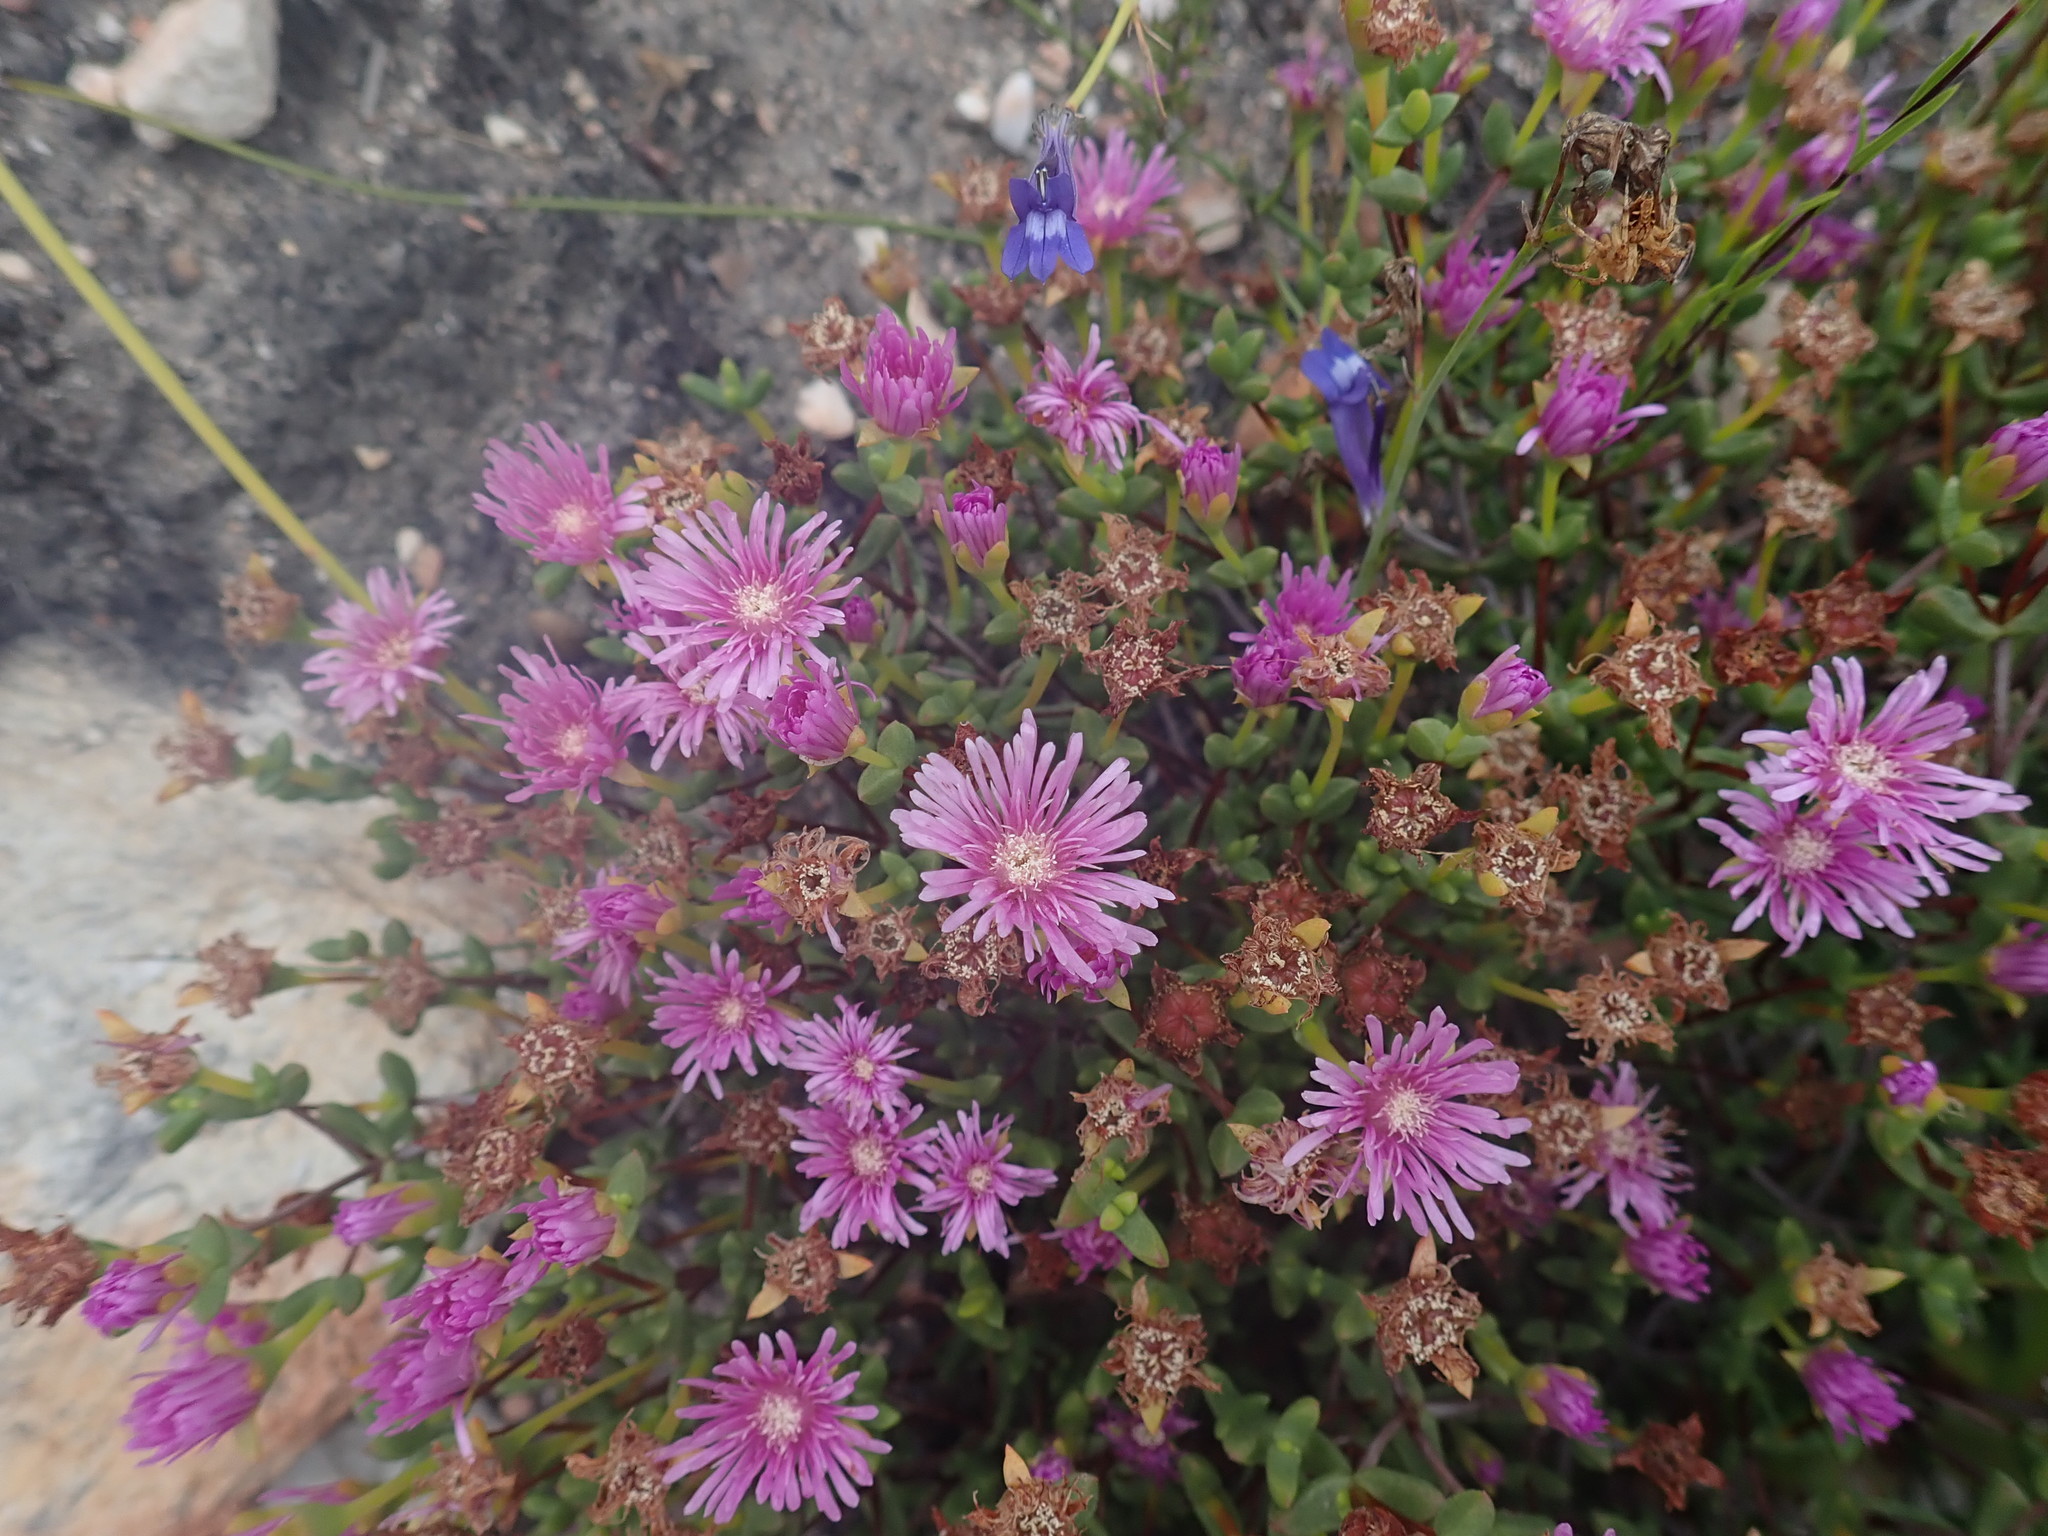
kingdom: Plantae
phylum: Tracheophyta
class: Magnoliopsida
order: Caryophyllales
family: Aizoaceae
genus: Ruschia
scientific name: Ruschia virgata
